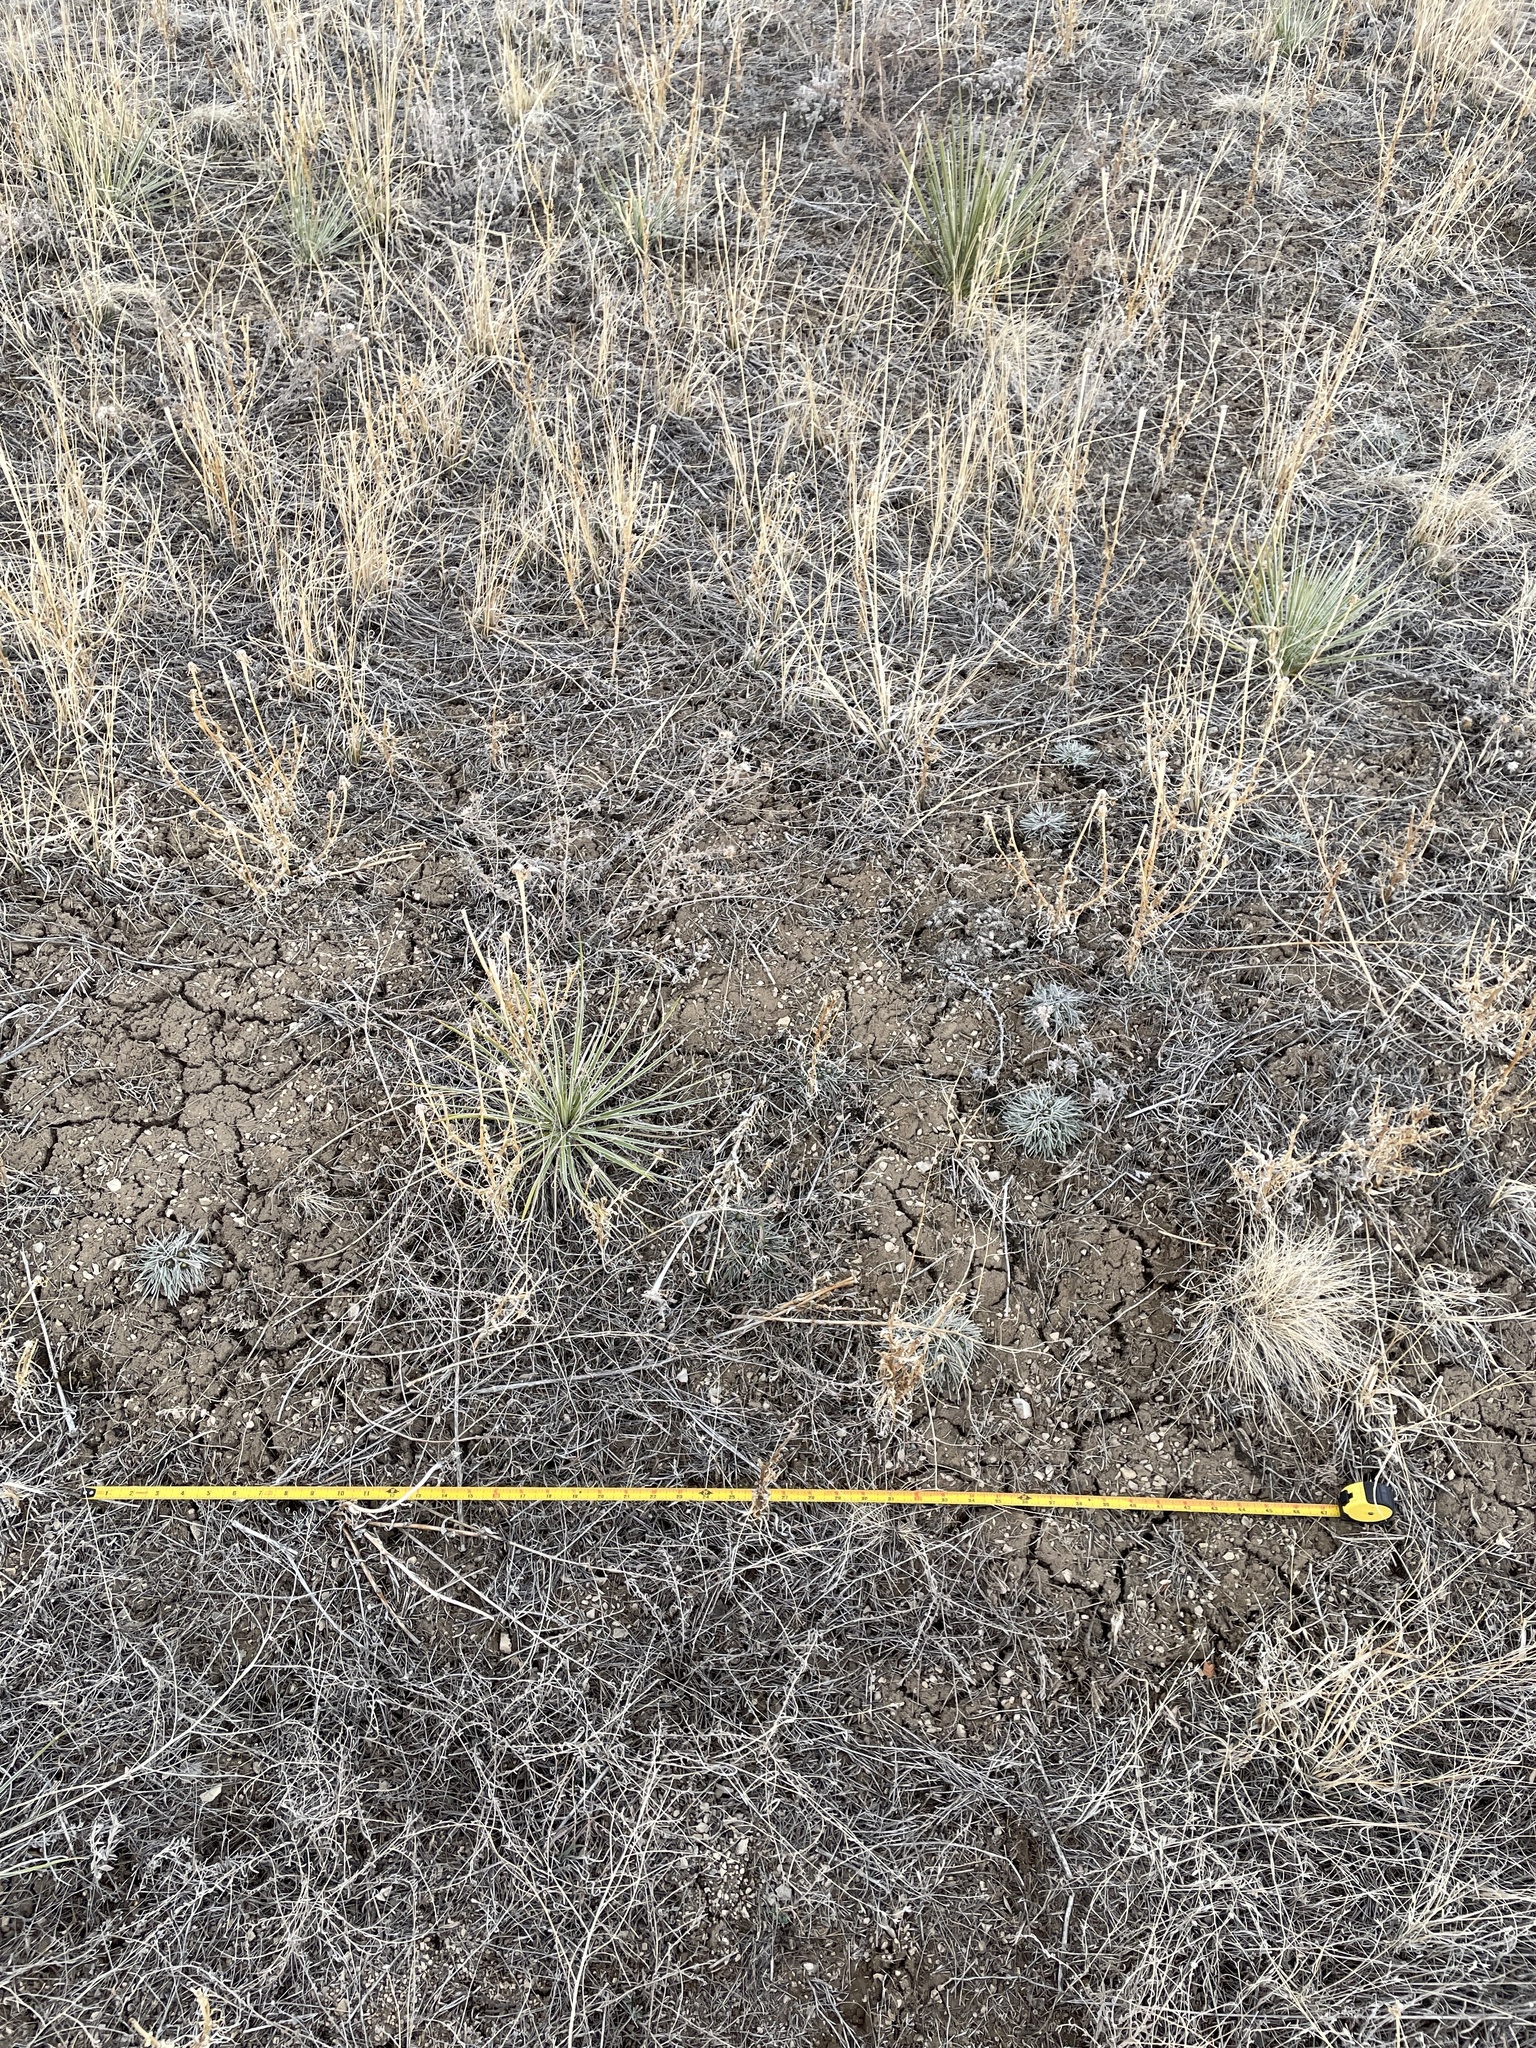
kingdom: Plantae
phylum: Tracheophyta
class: Magnoliopsida
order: Asterales
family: Asteraceae
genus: Townsendia
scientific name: Townsendia hookeri
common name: Hooker's townsend daisy
